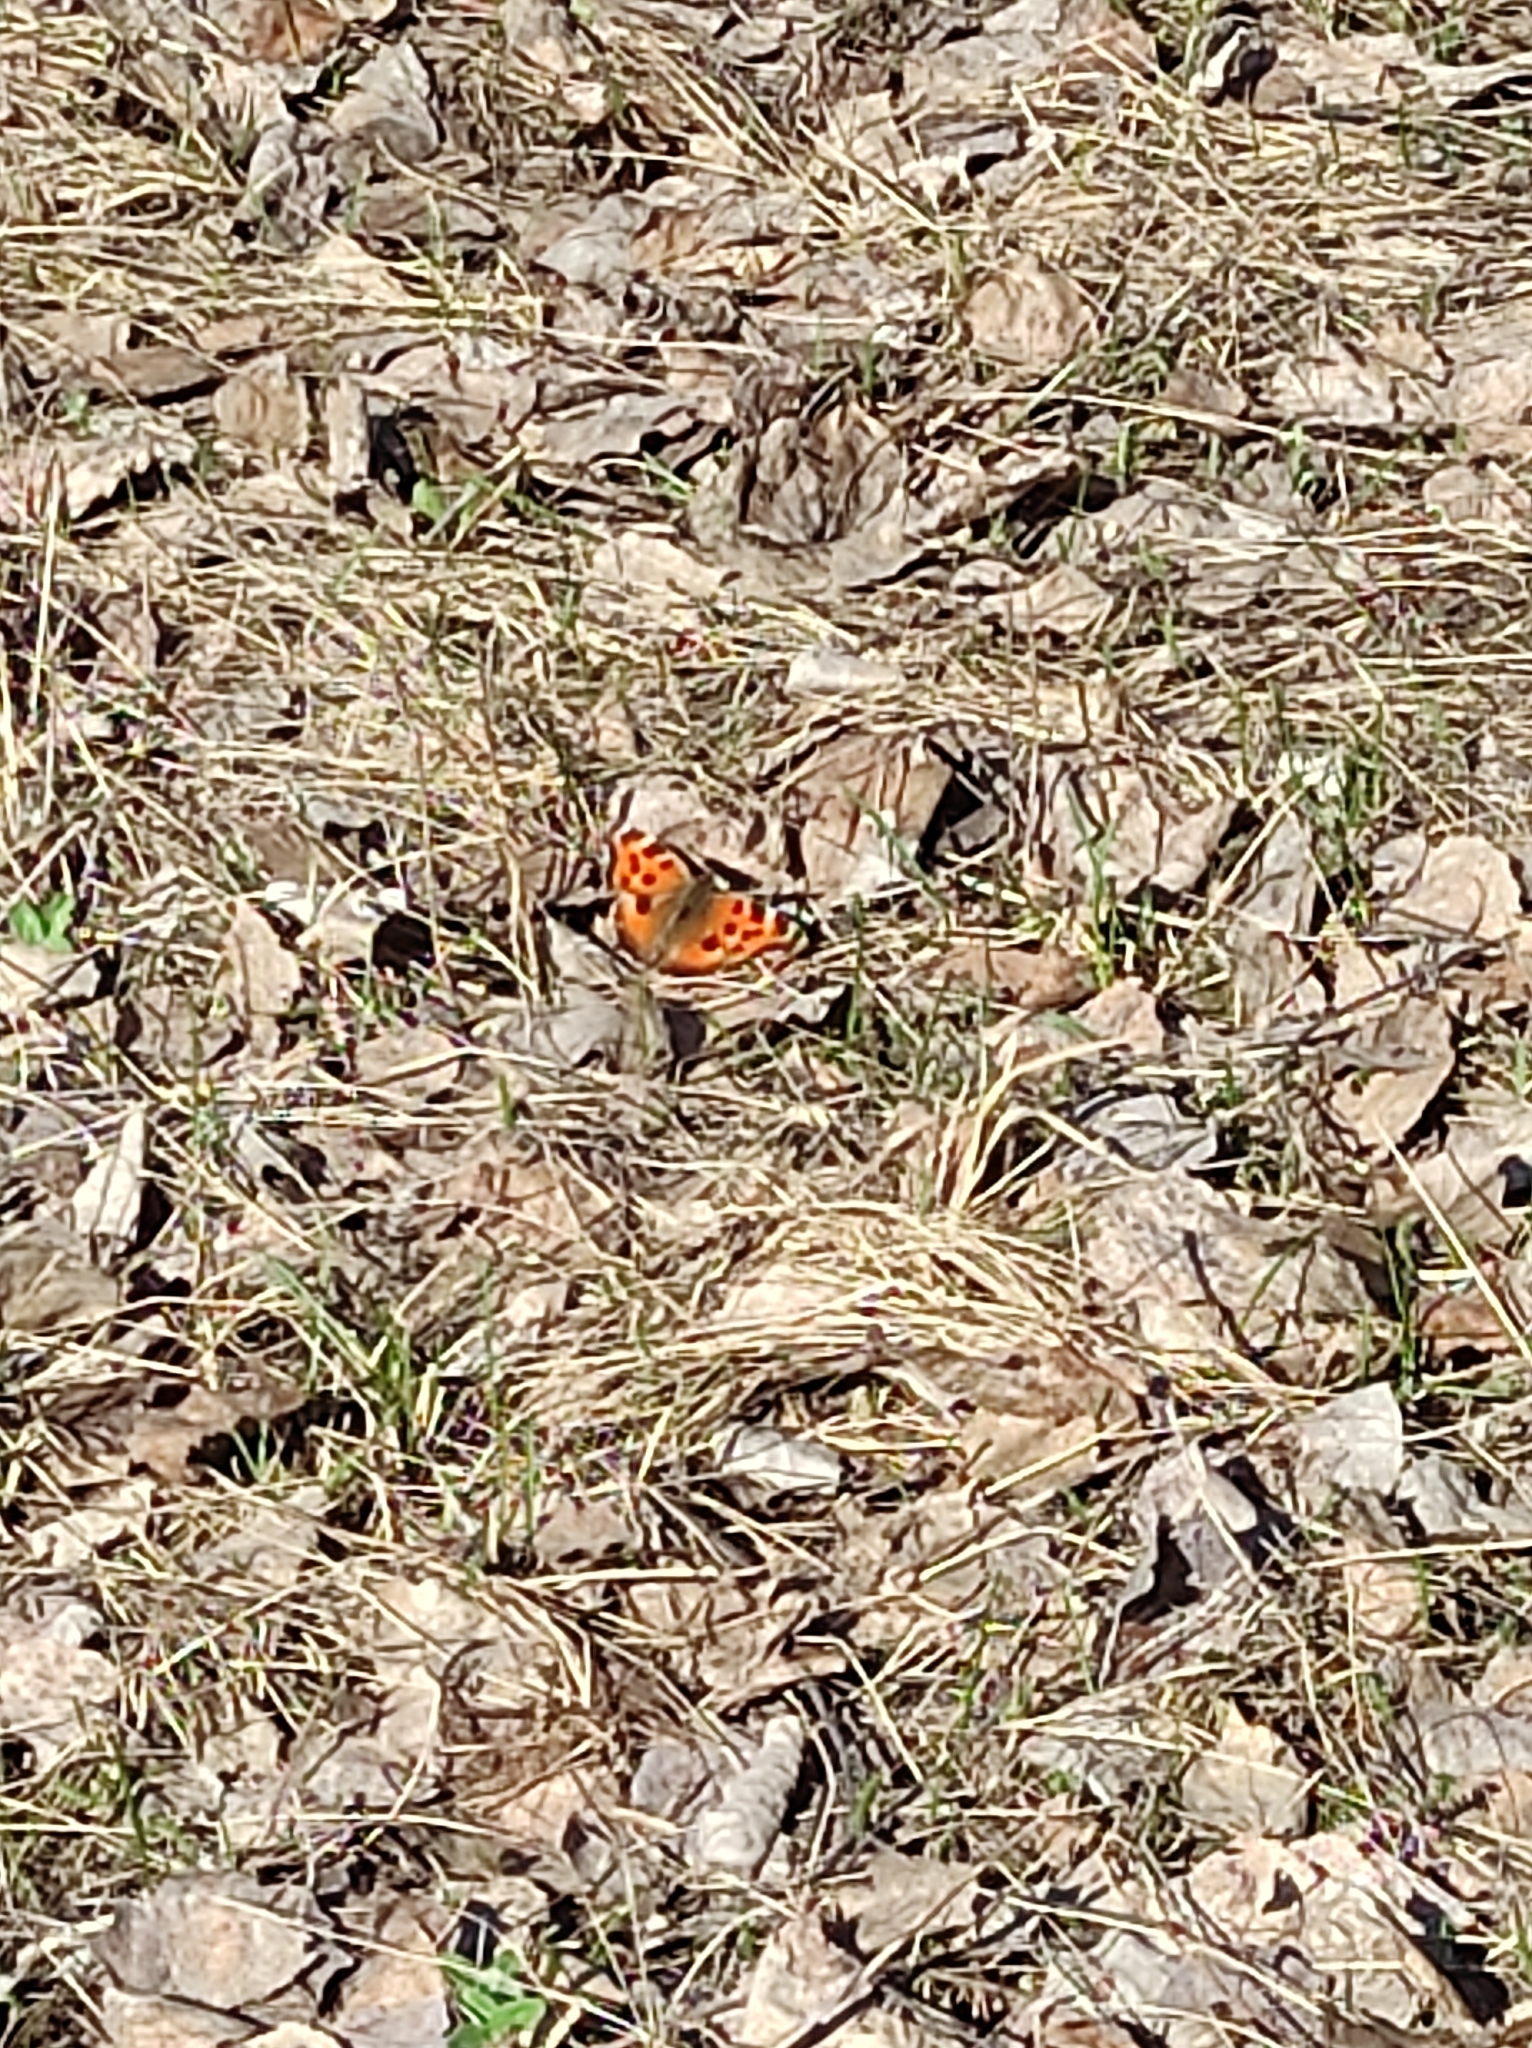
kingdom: Animalia
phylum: Arthropoda
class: Insecta
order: Lepidoptera
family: Nymphalidae
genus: Nymphalis
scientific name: Nymphalis xanthomelas
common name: Scarce tortoiseshell
